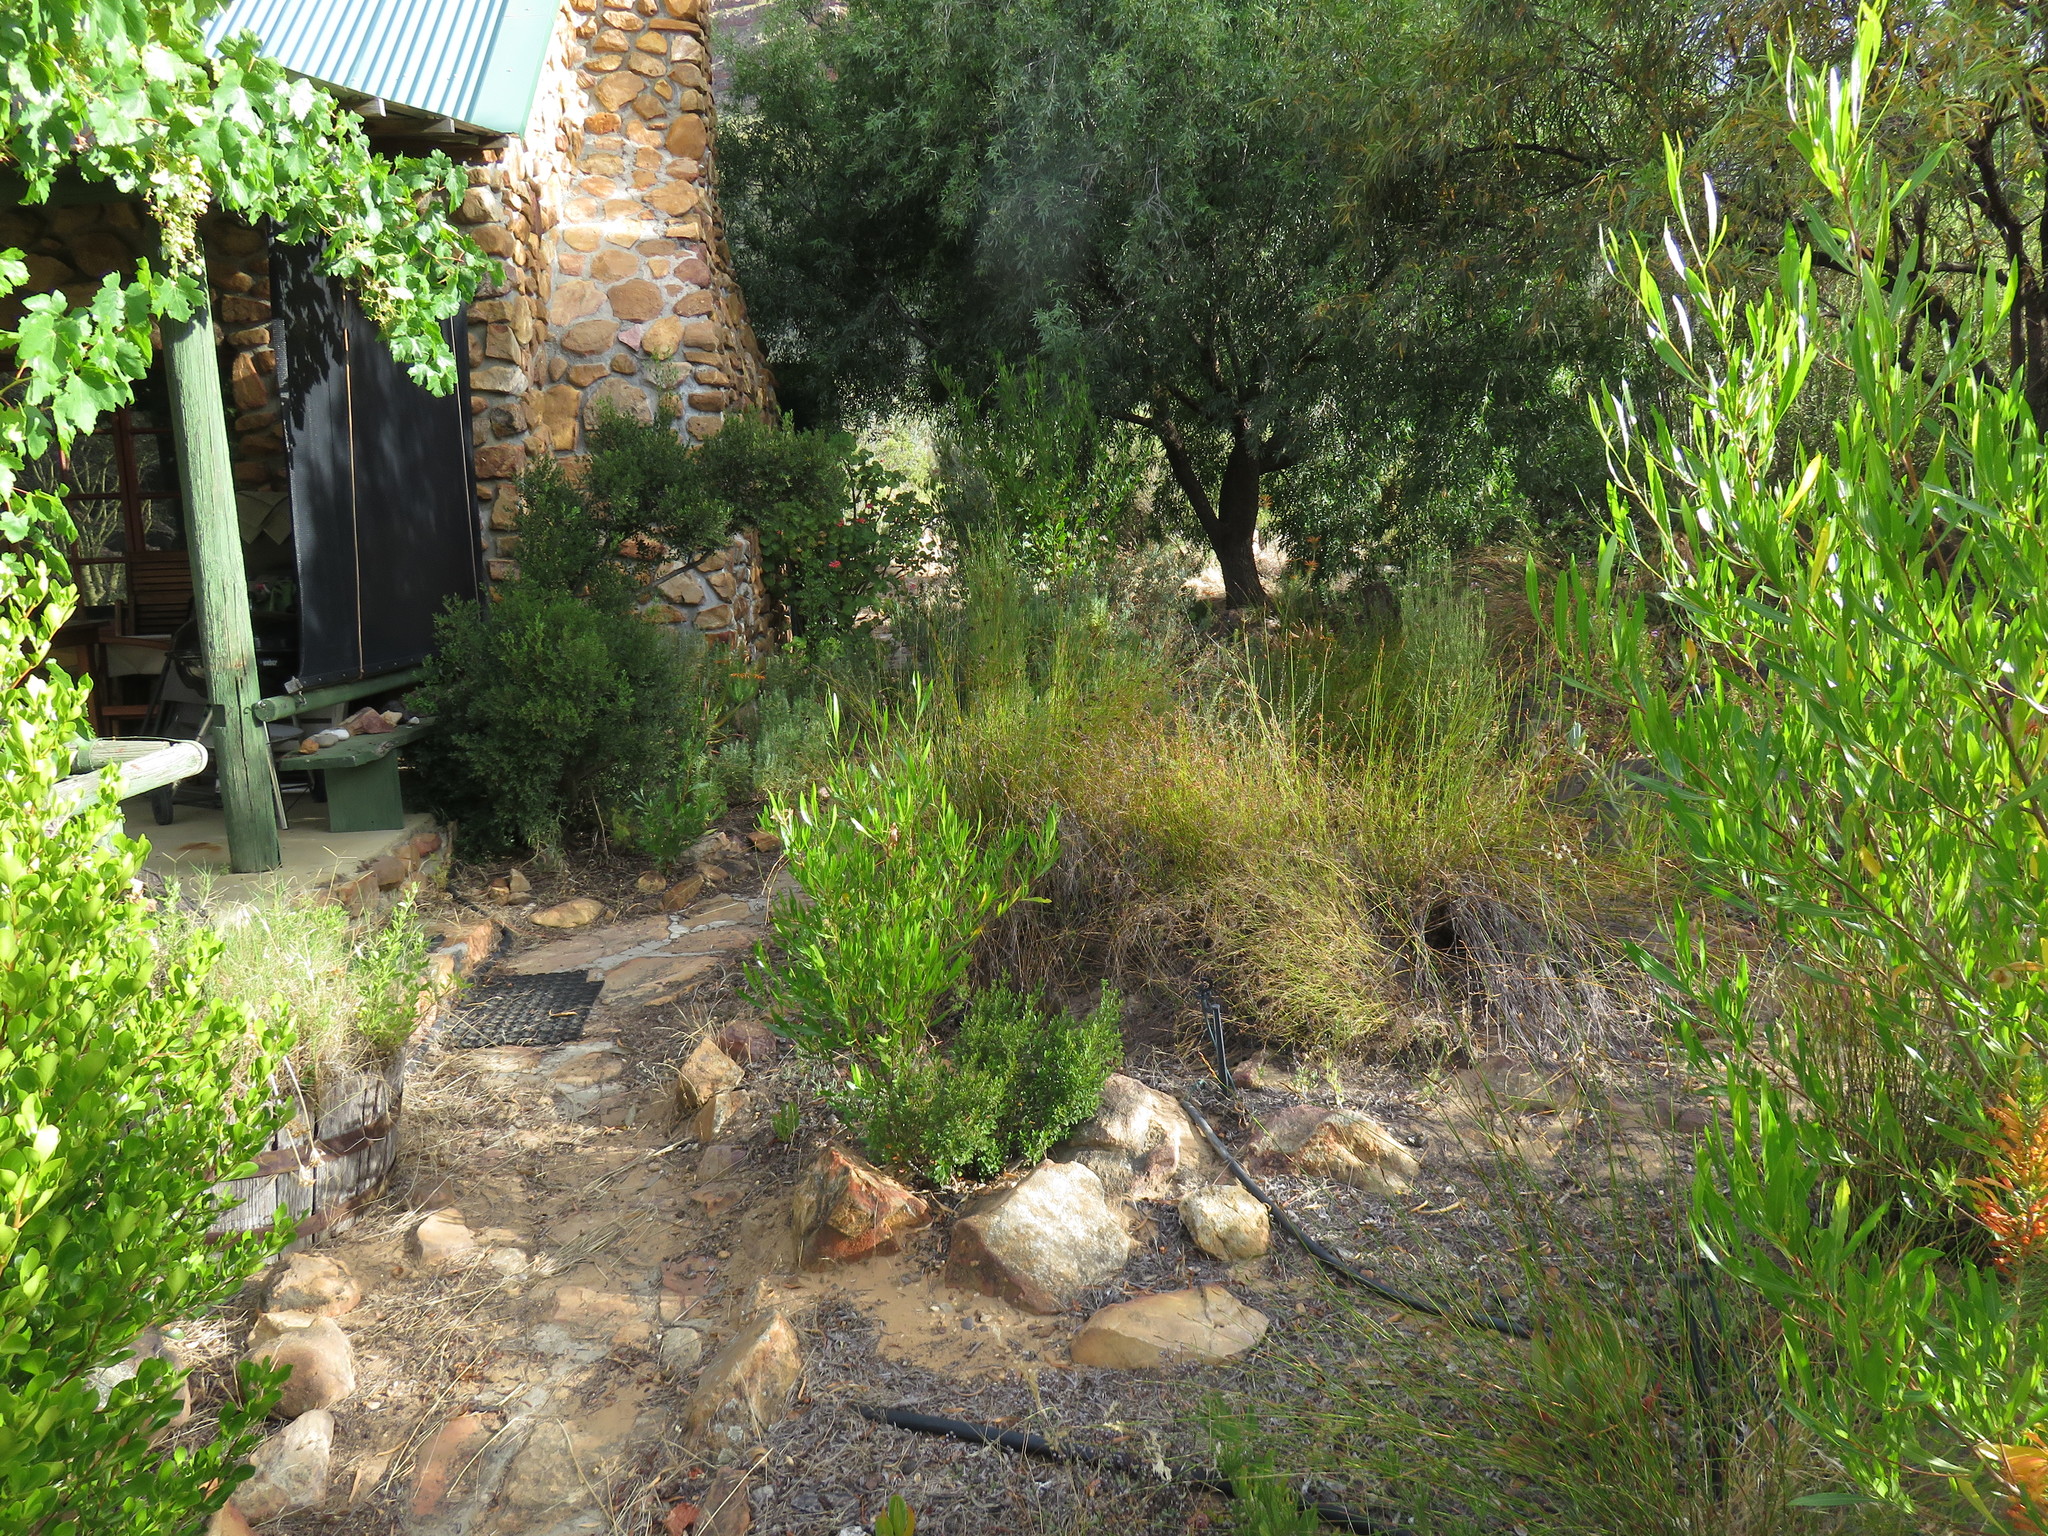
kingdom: Plantae
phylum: Tracheophyta
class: Magnoliopsida
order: Sapindales
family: Sapindaceae
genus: Dodonaea
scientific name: Dodonaea viscosa
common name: Hopbush
